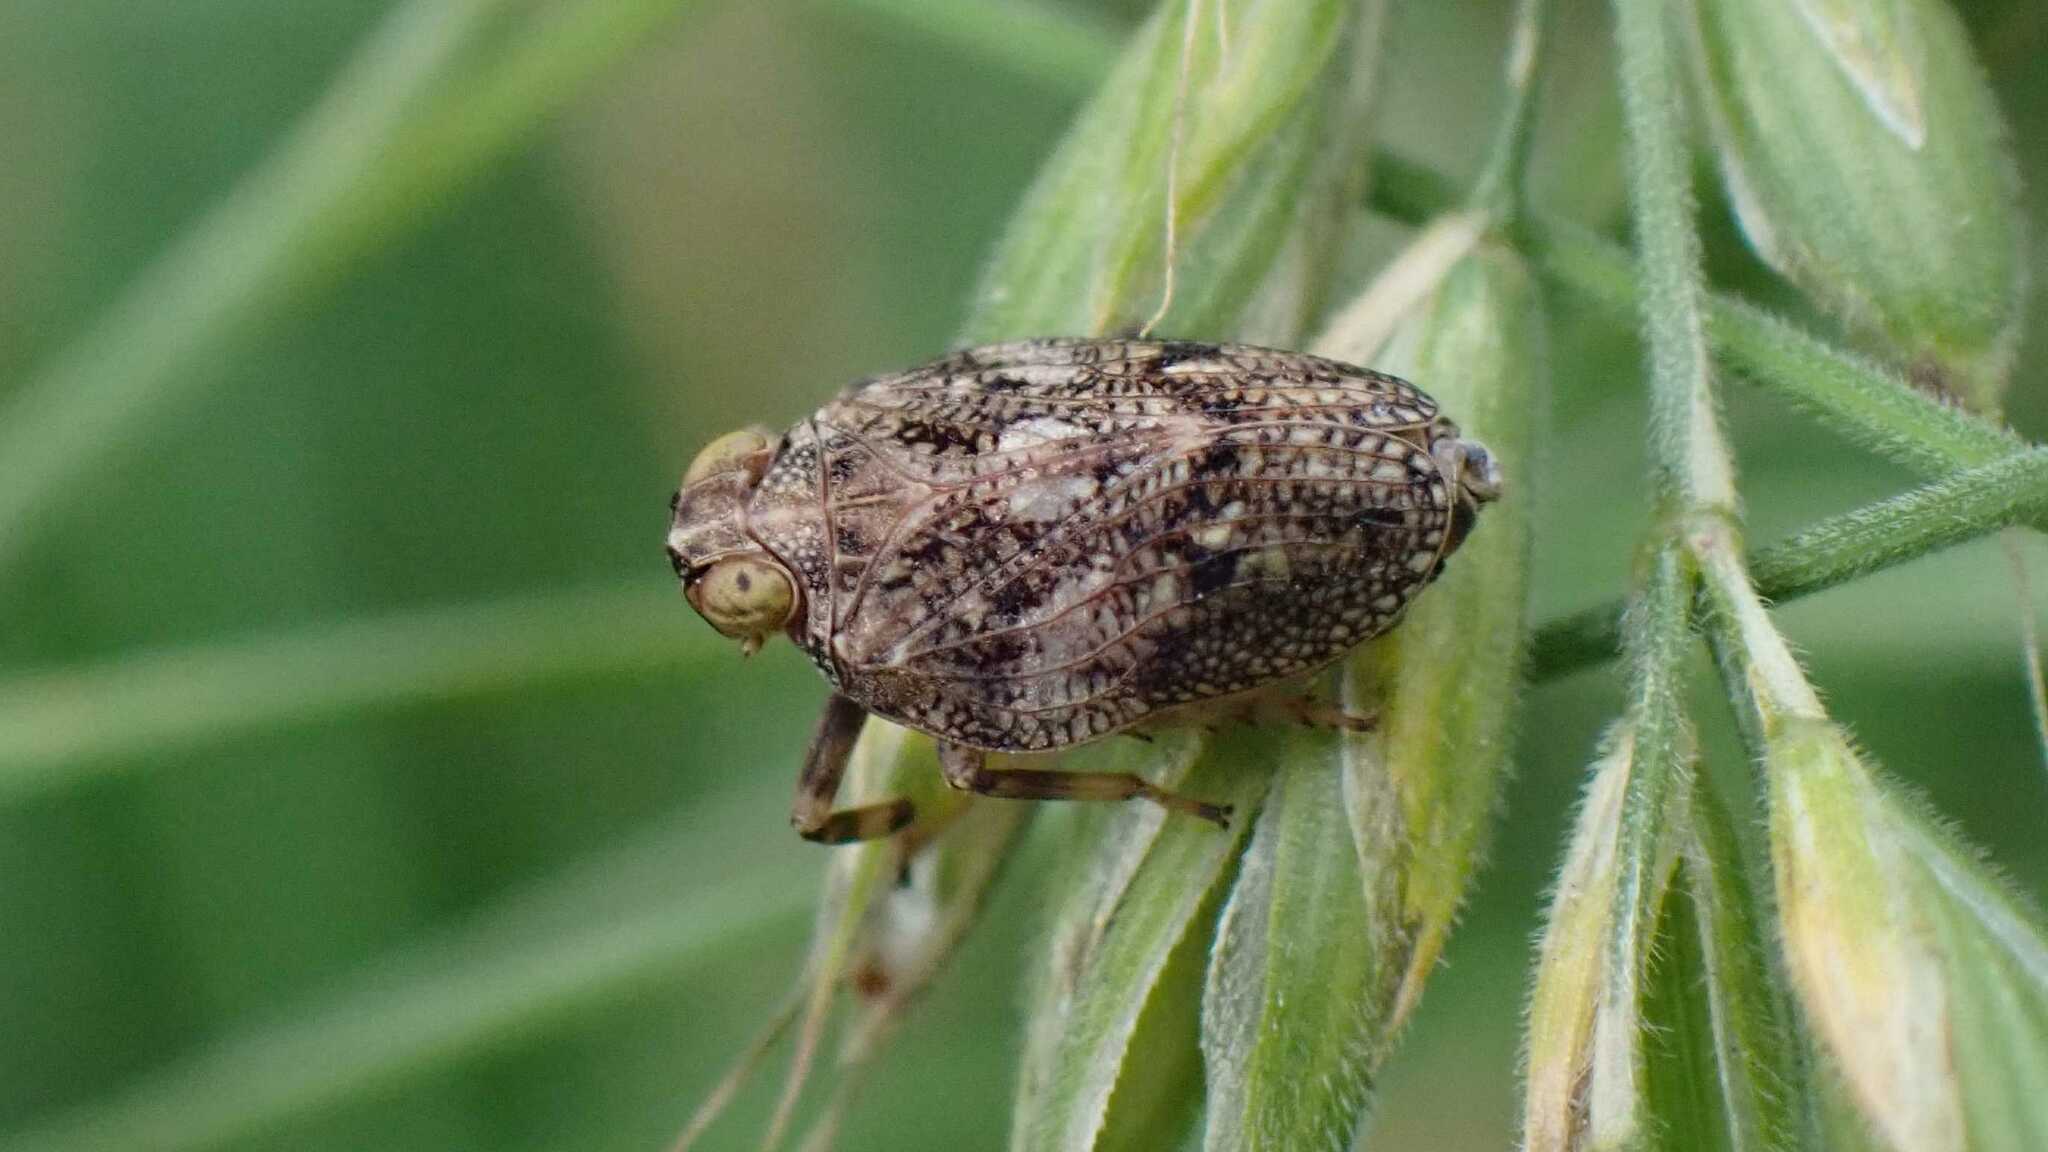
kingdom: Animalia
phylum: Arthropoda
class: Insecta
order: Hemiptera
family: Issidae
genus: Issus
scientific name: Issus coleoptratus
